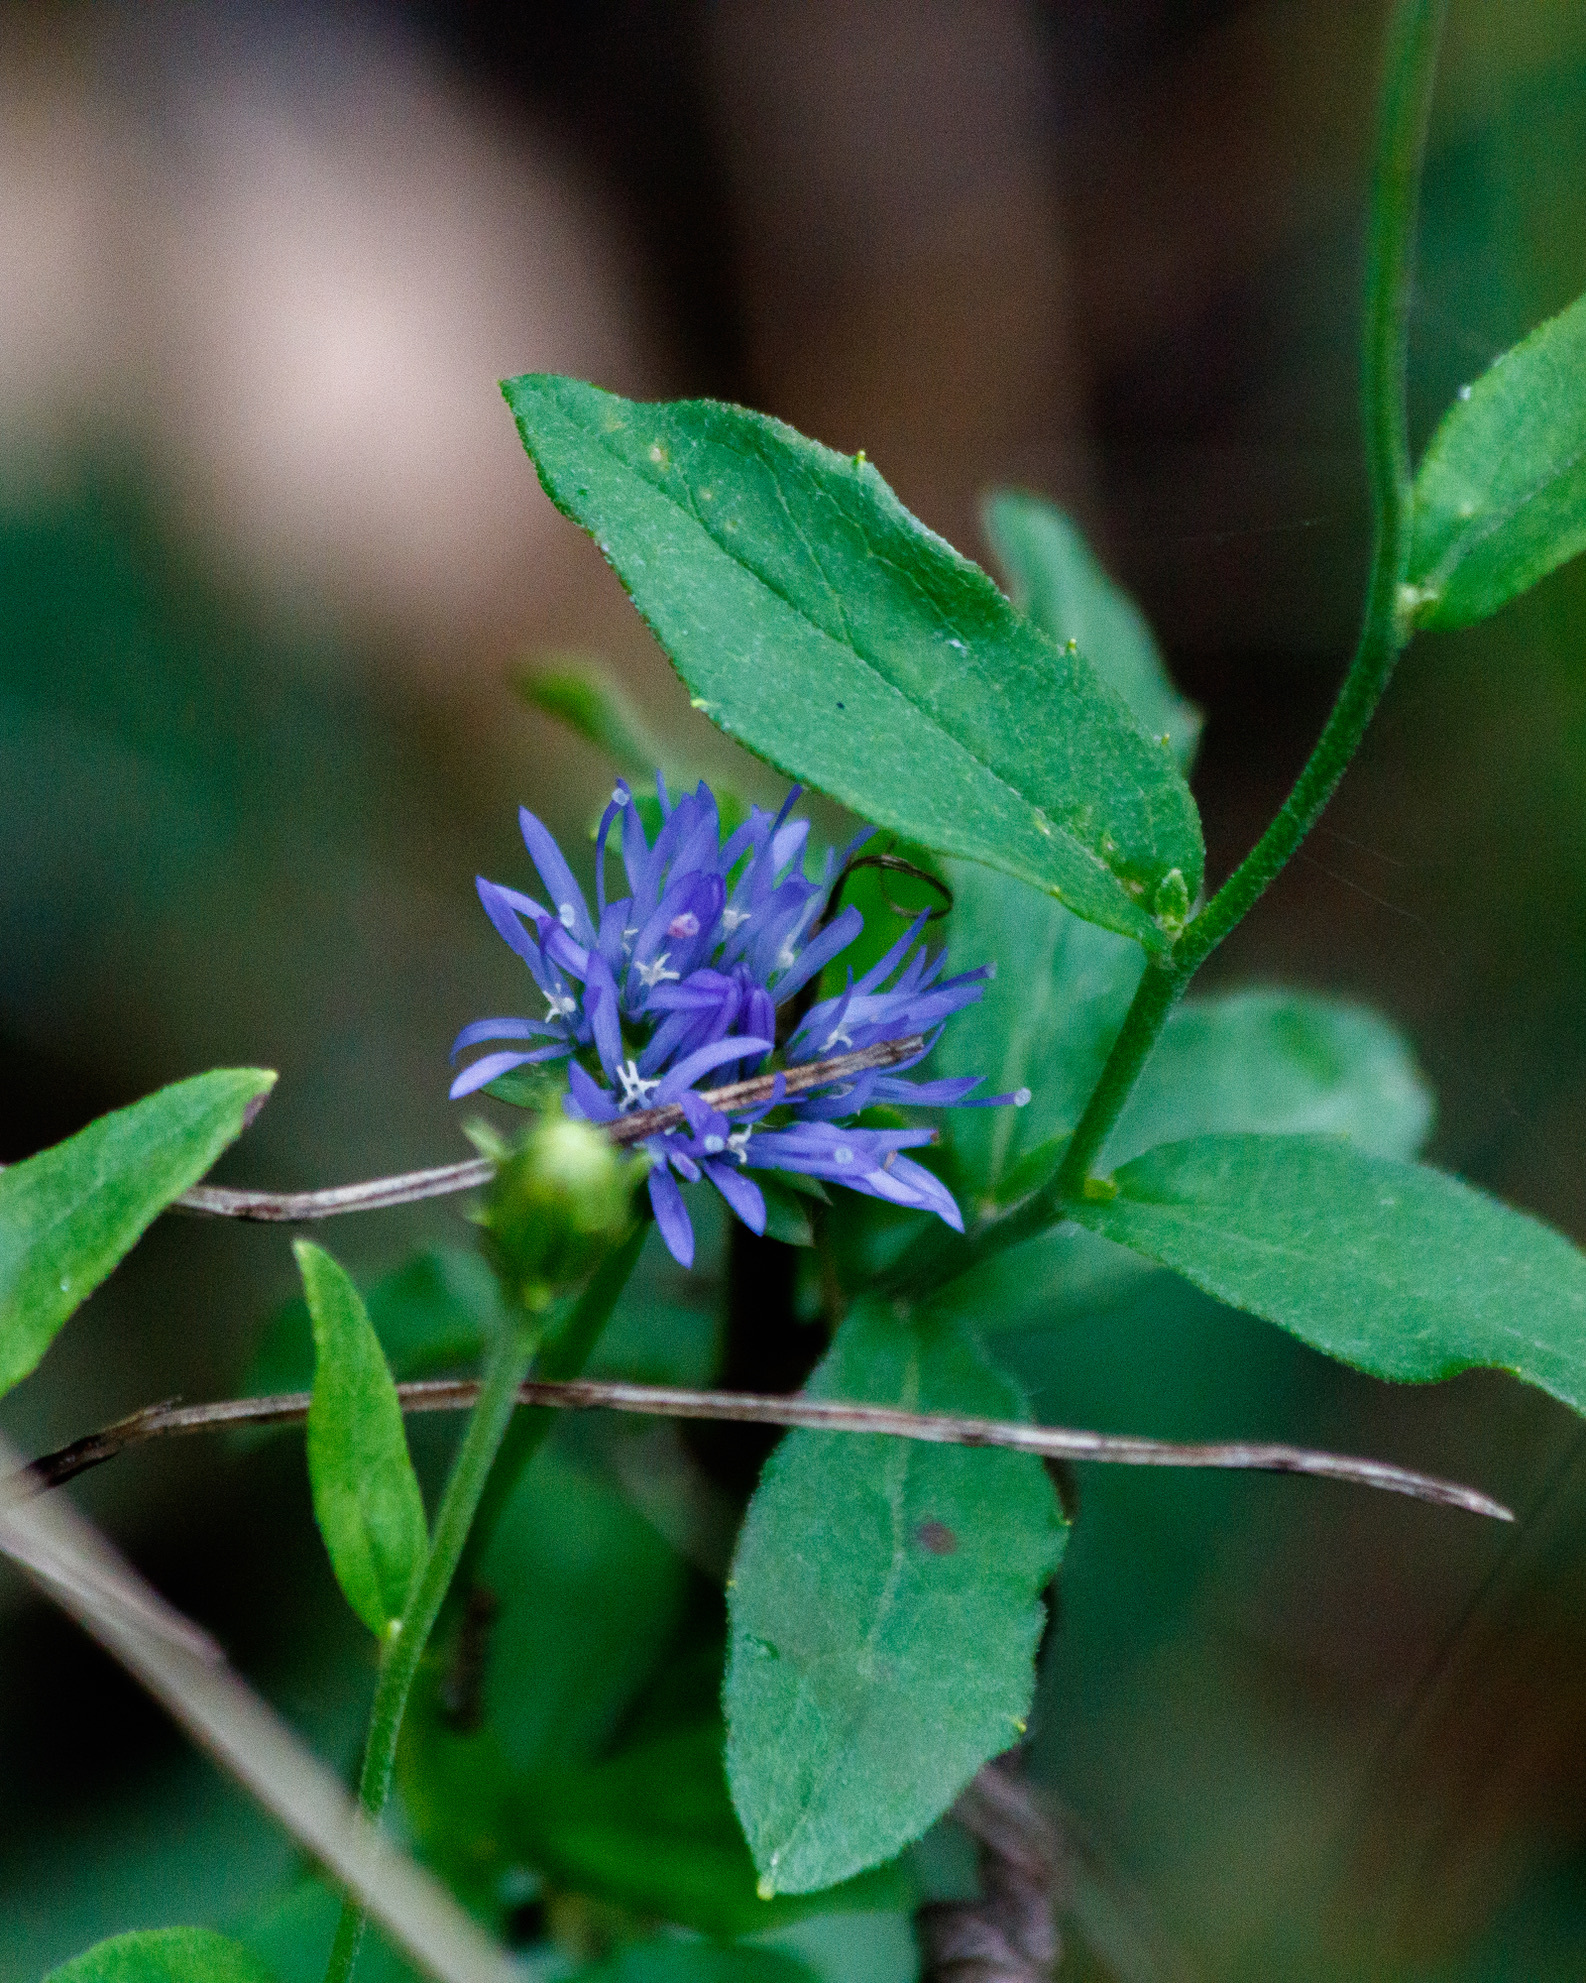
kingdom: Plantae
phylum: Tracheophyta
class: Magnoliopsida
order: Asterales
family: Campanulaceae
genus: Jasione
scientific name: Jasione montana
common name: Sheep's-bit
